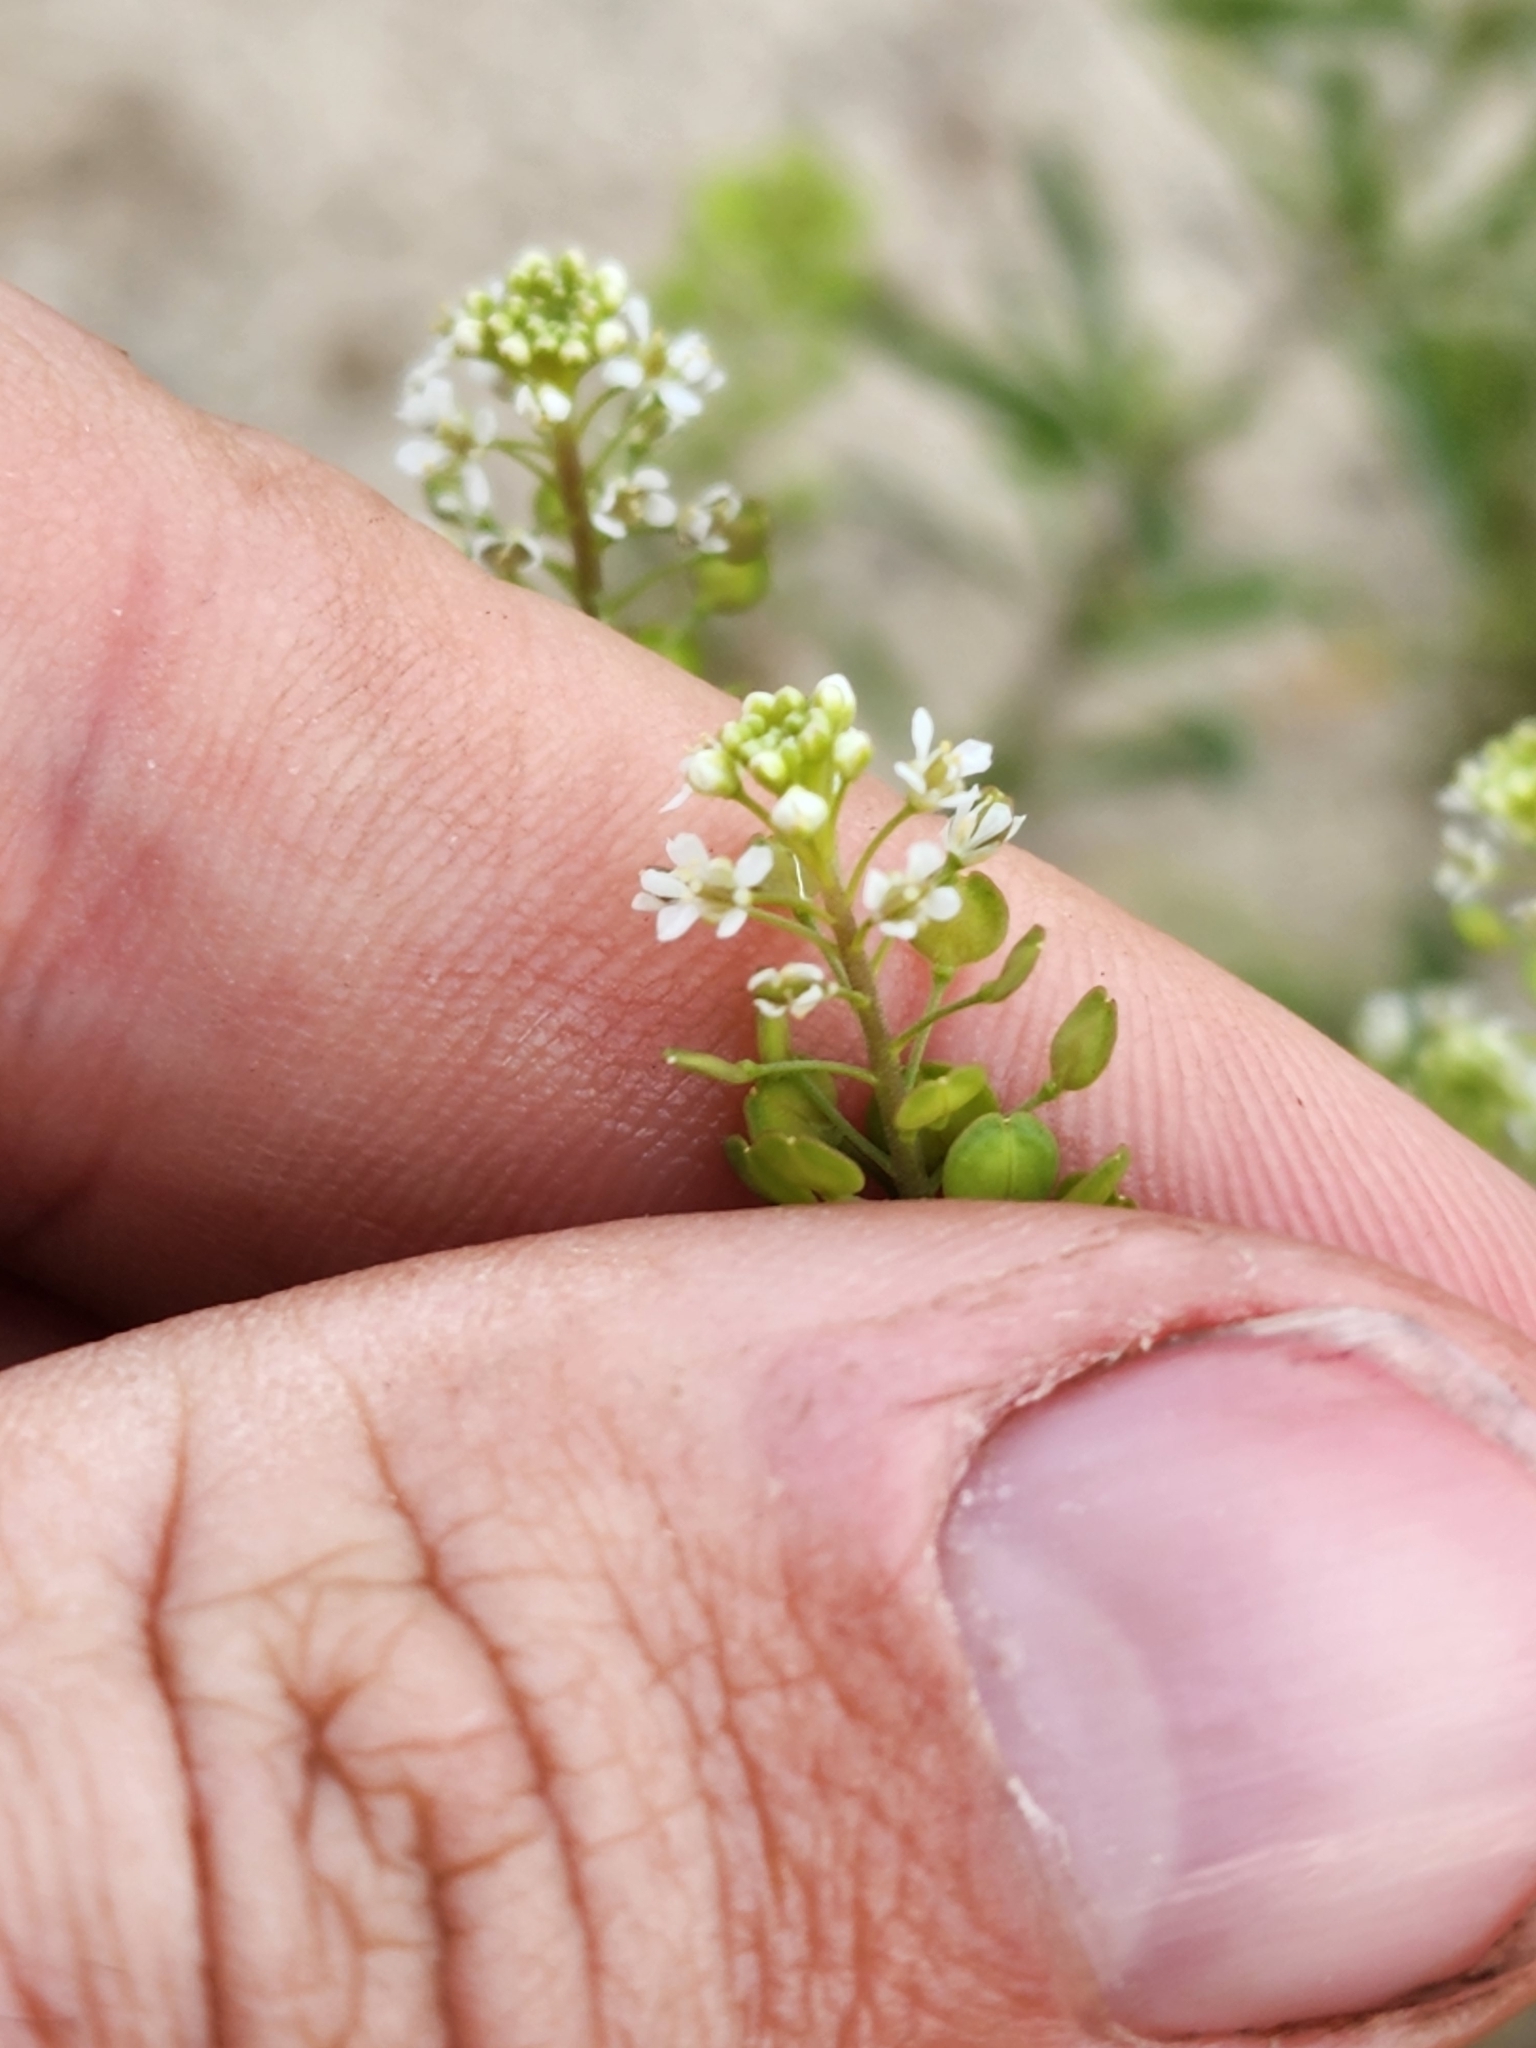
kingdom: Plantae
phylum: Tracheophyta
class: Magnoliopsida
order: Brassicales
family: Brassicaceae
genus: Lepidium
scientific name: Lepidium virginicum
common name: Least pepperwort
